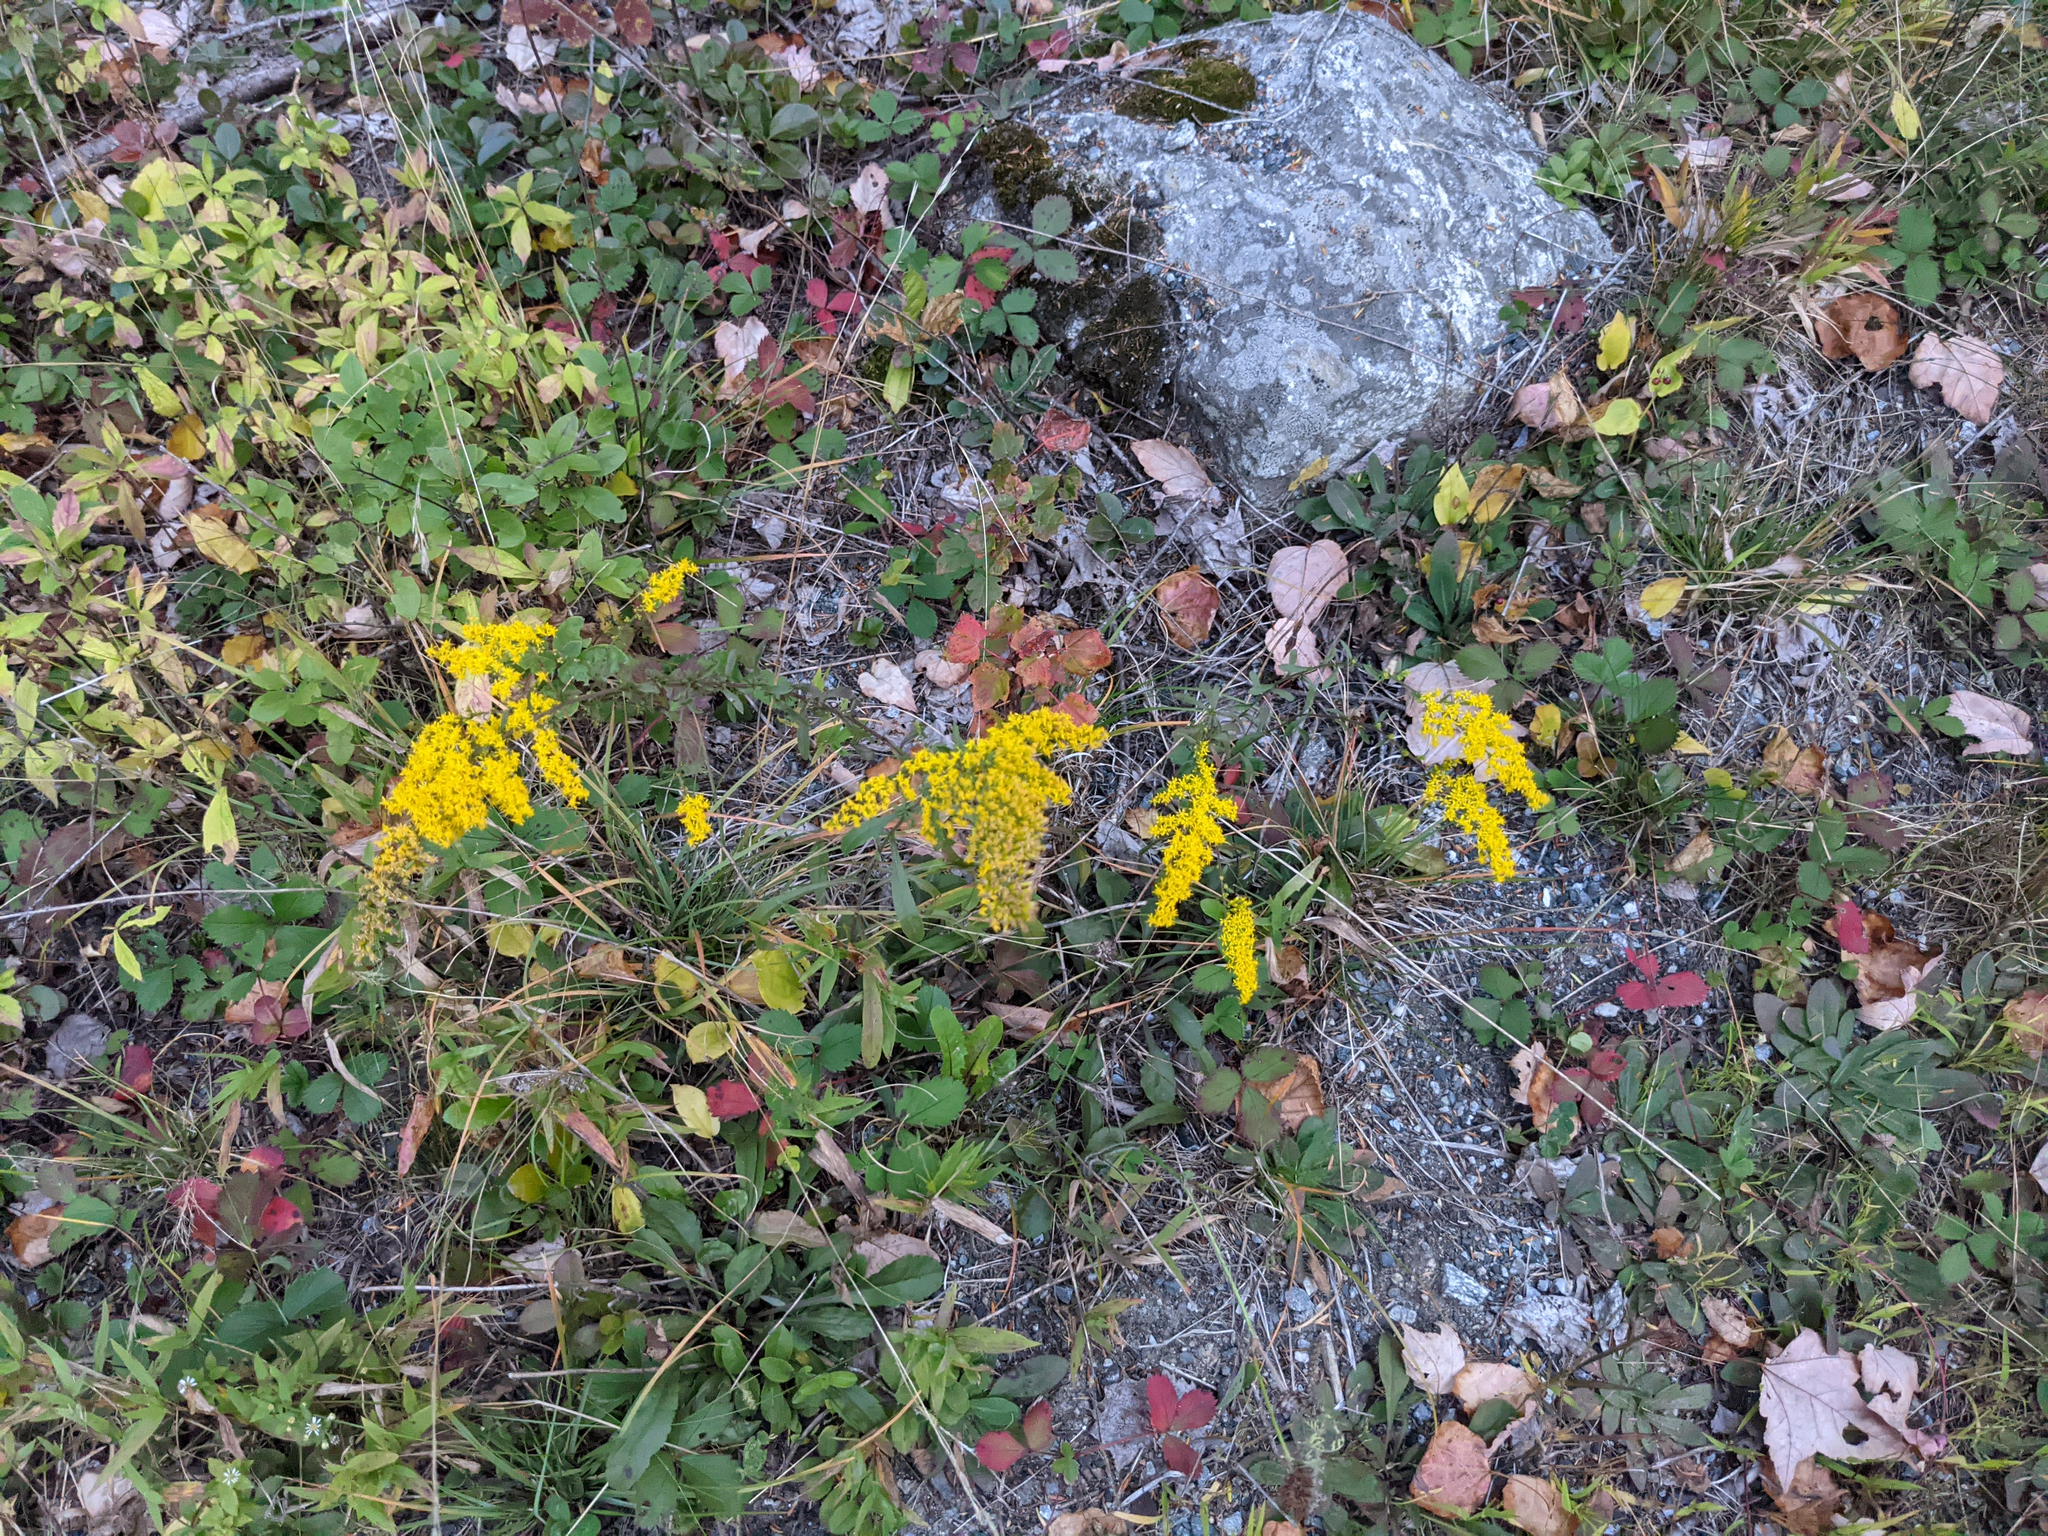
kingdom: Plantae
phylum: Tracheophyta
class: Magnoliopsida
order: Asterales
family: Asteraceae
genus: Solidago
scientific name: Solidago nemoralis
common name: Grey goldenrod
